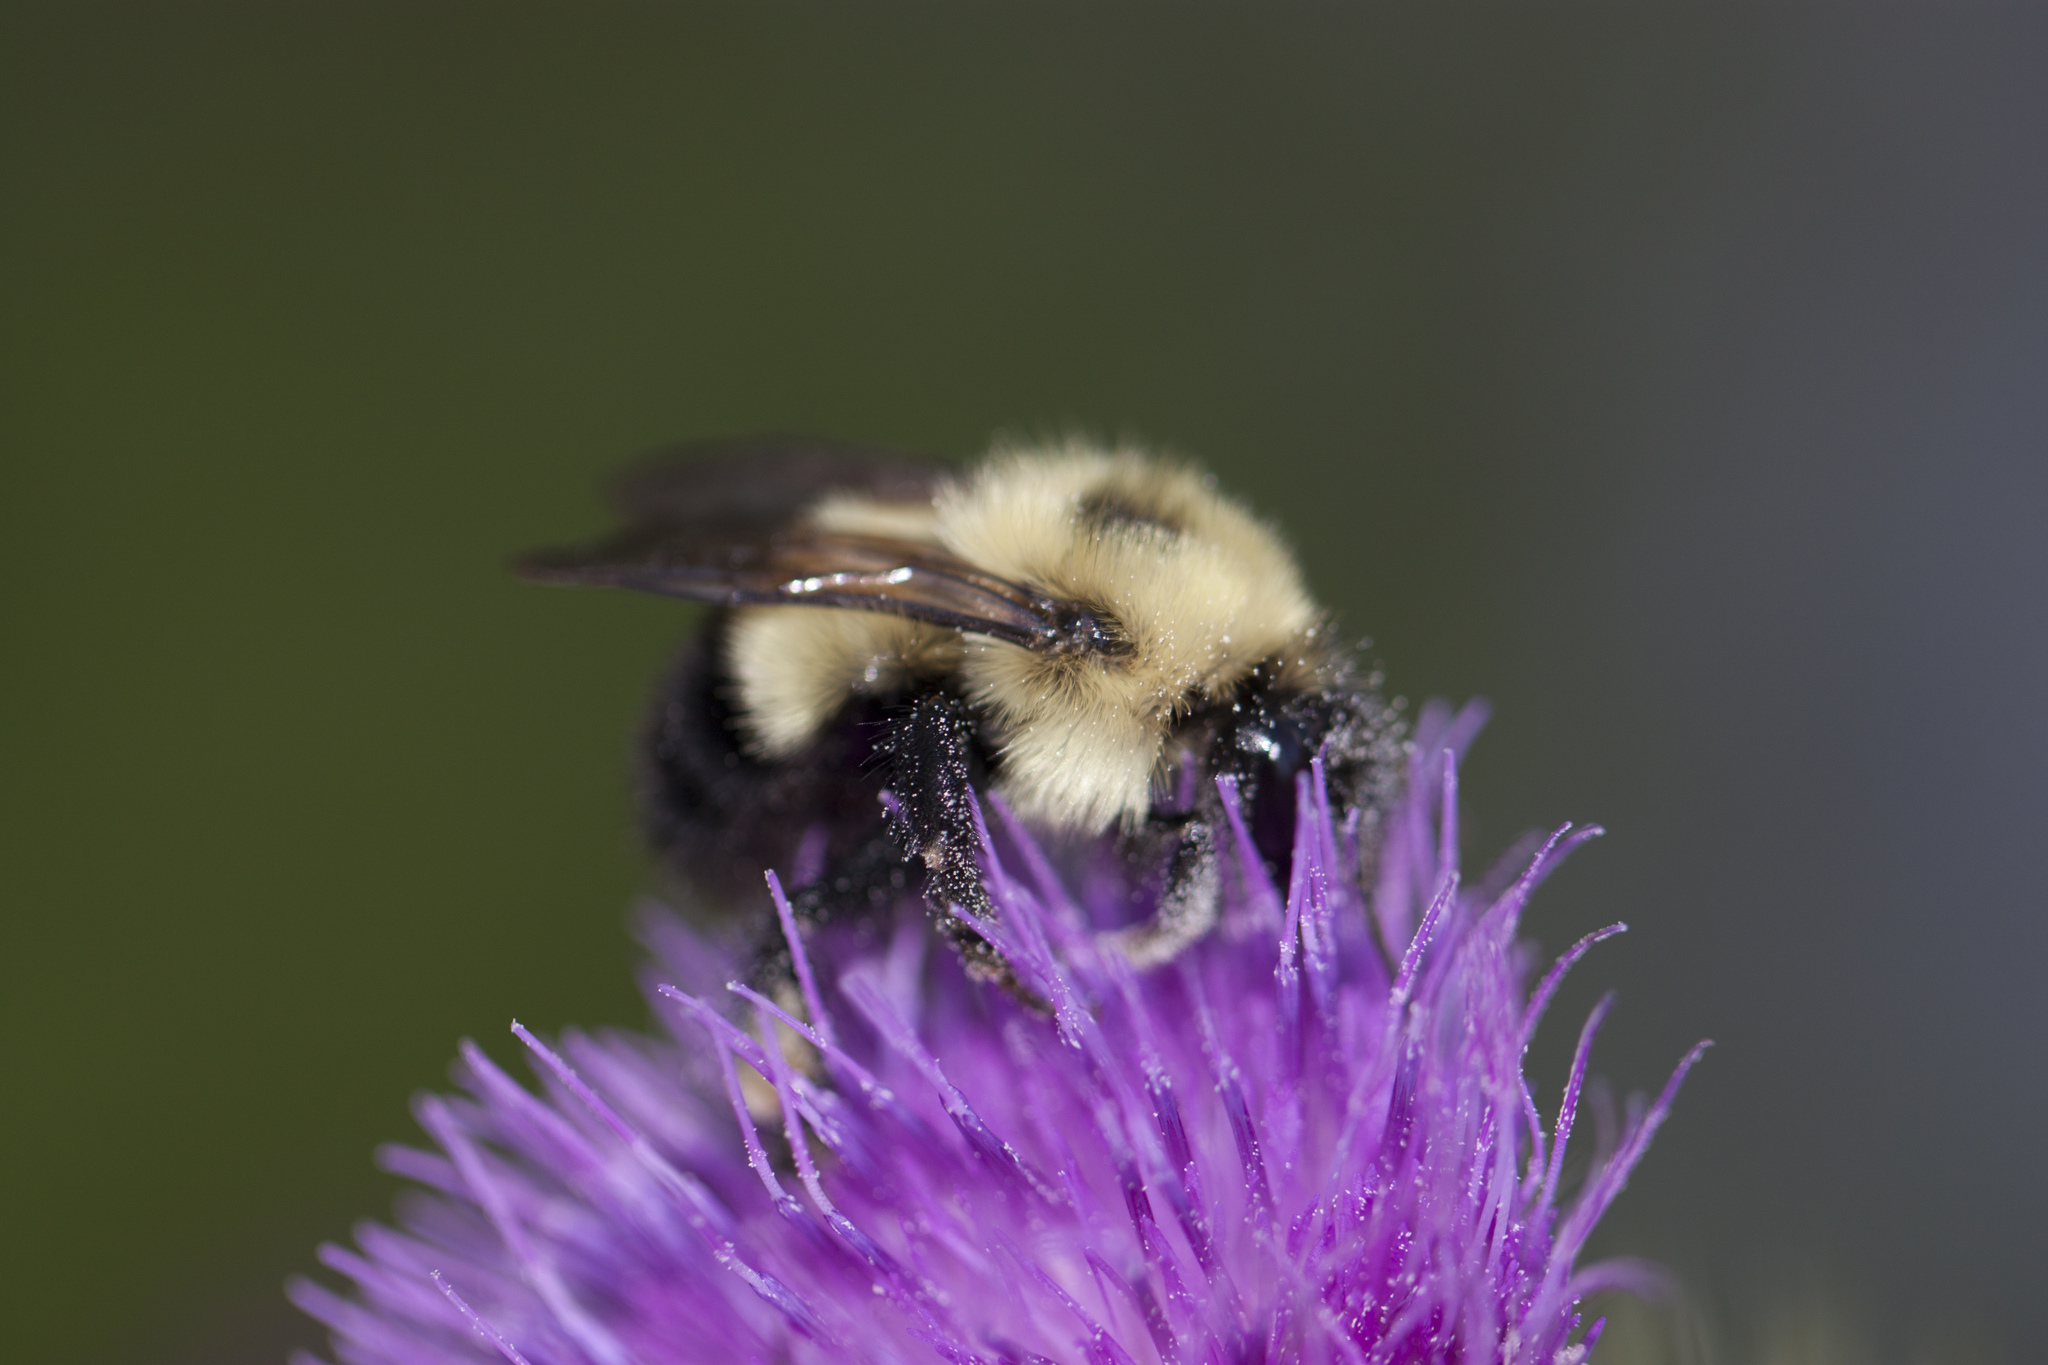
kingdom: Animalia
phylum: Arthropoda
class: Insecta
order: Hymenoptera
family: Apidae
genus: Pyrobombus
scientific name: Pyrobombus
